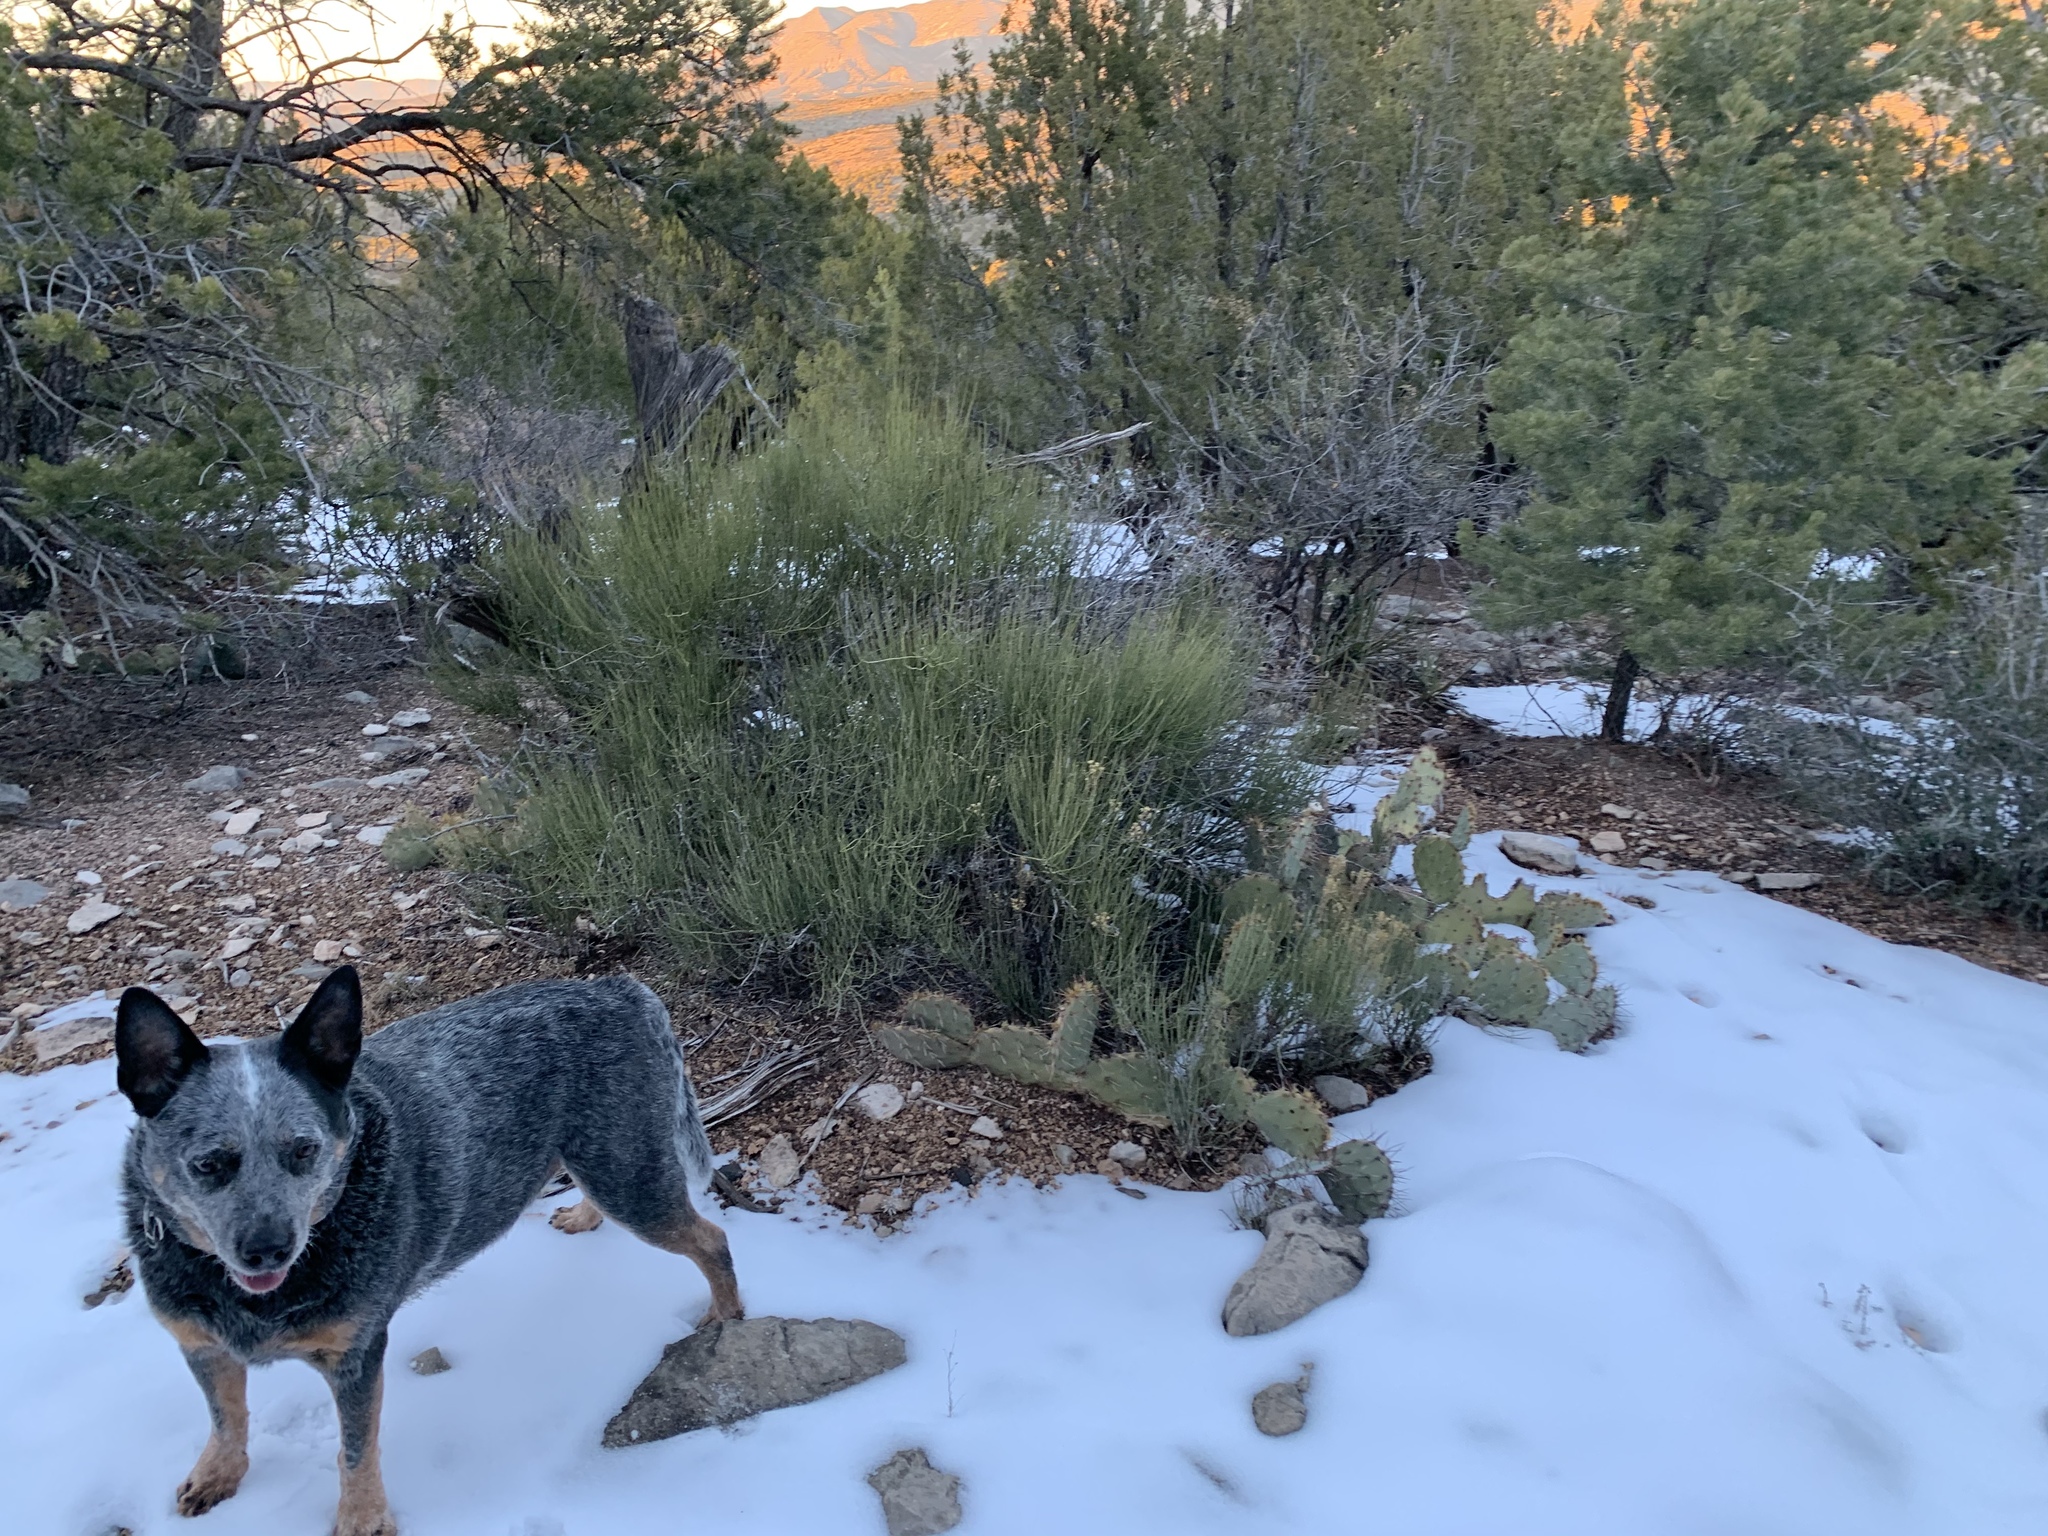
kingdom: Plantae
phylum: Tracheophyta
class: Gnetopsida
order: Ephedrales
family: Ephedraceae
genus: Ephedra
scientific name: Ephedra viridis
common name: Green ephedra
